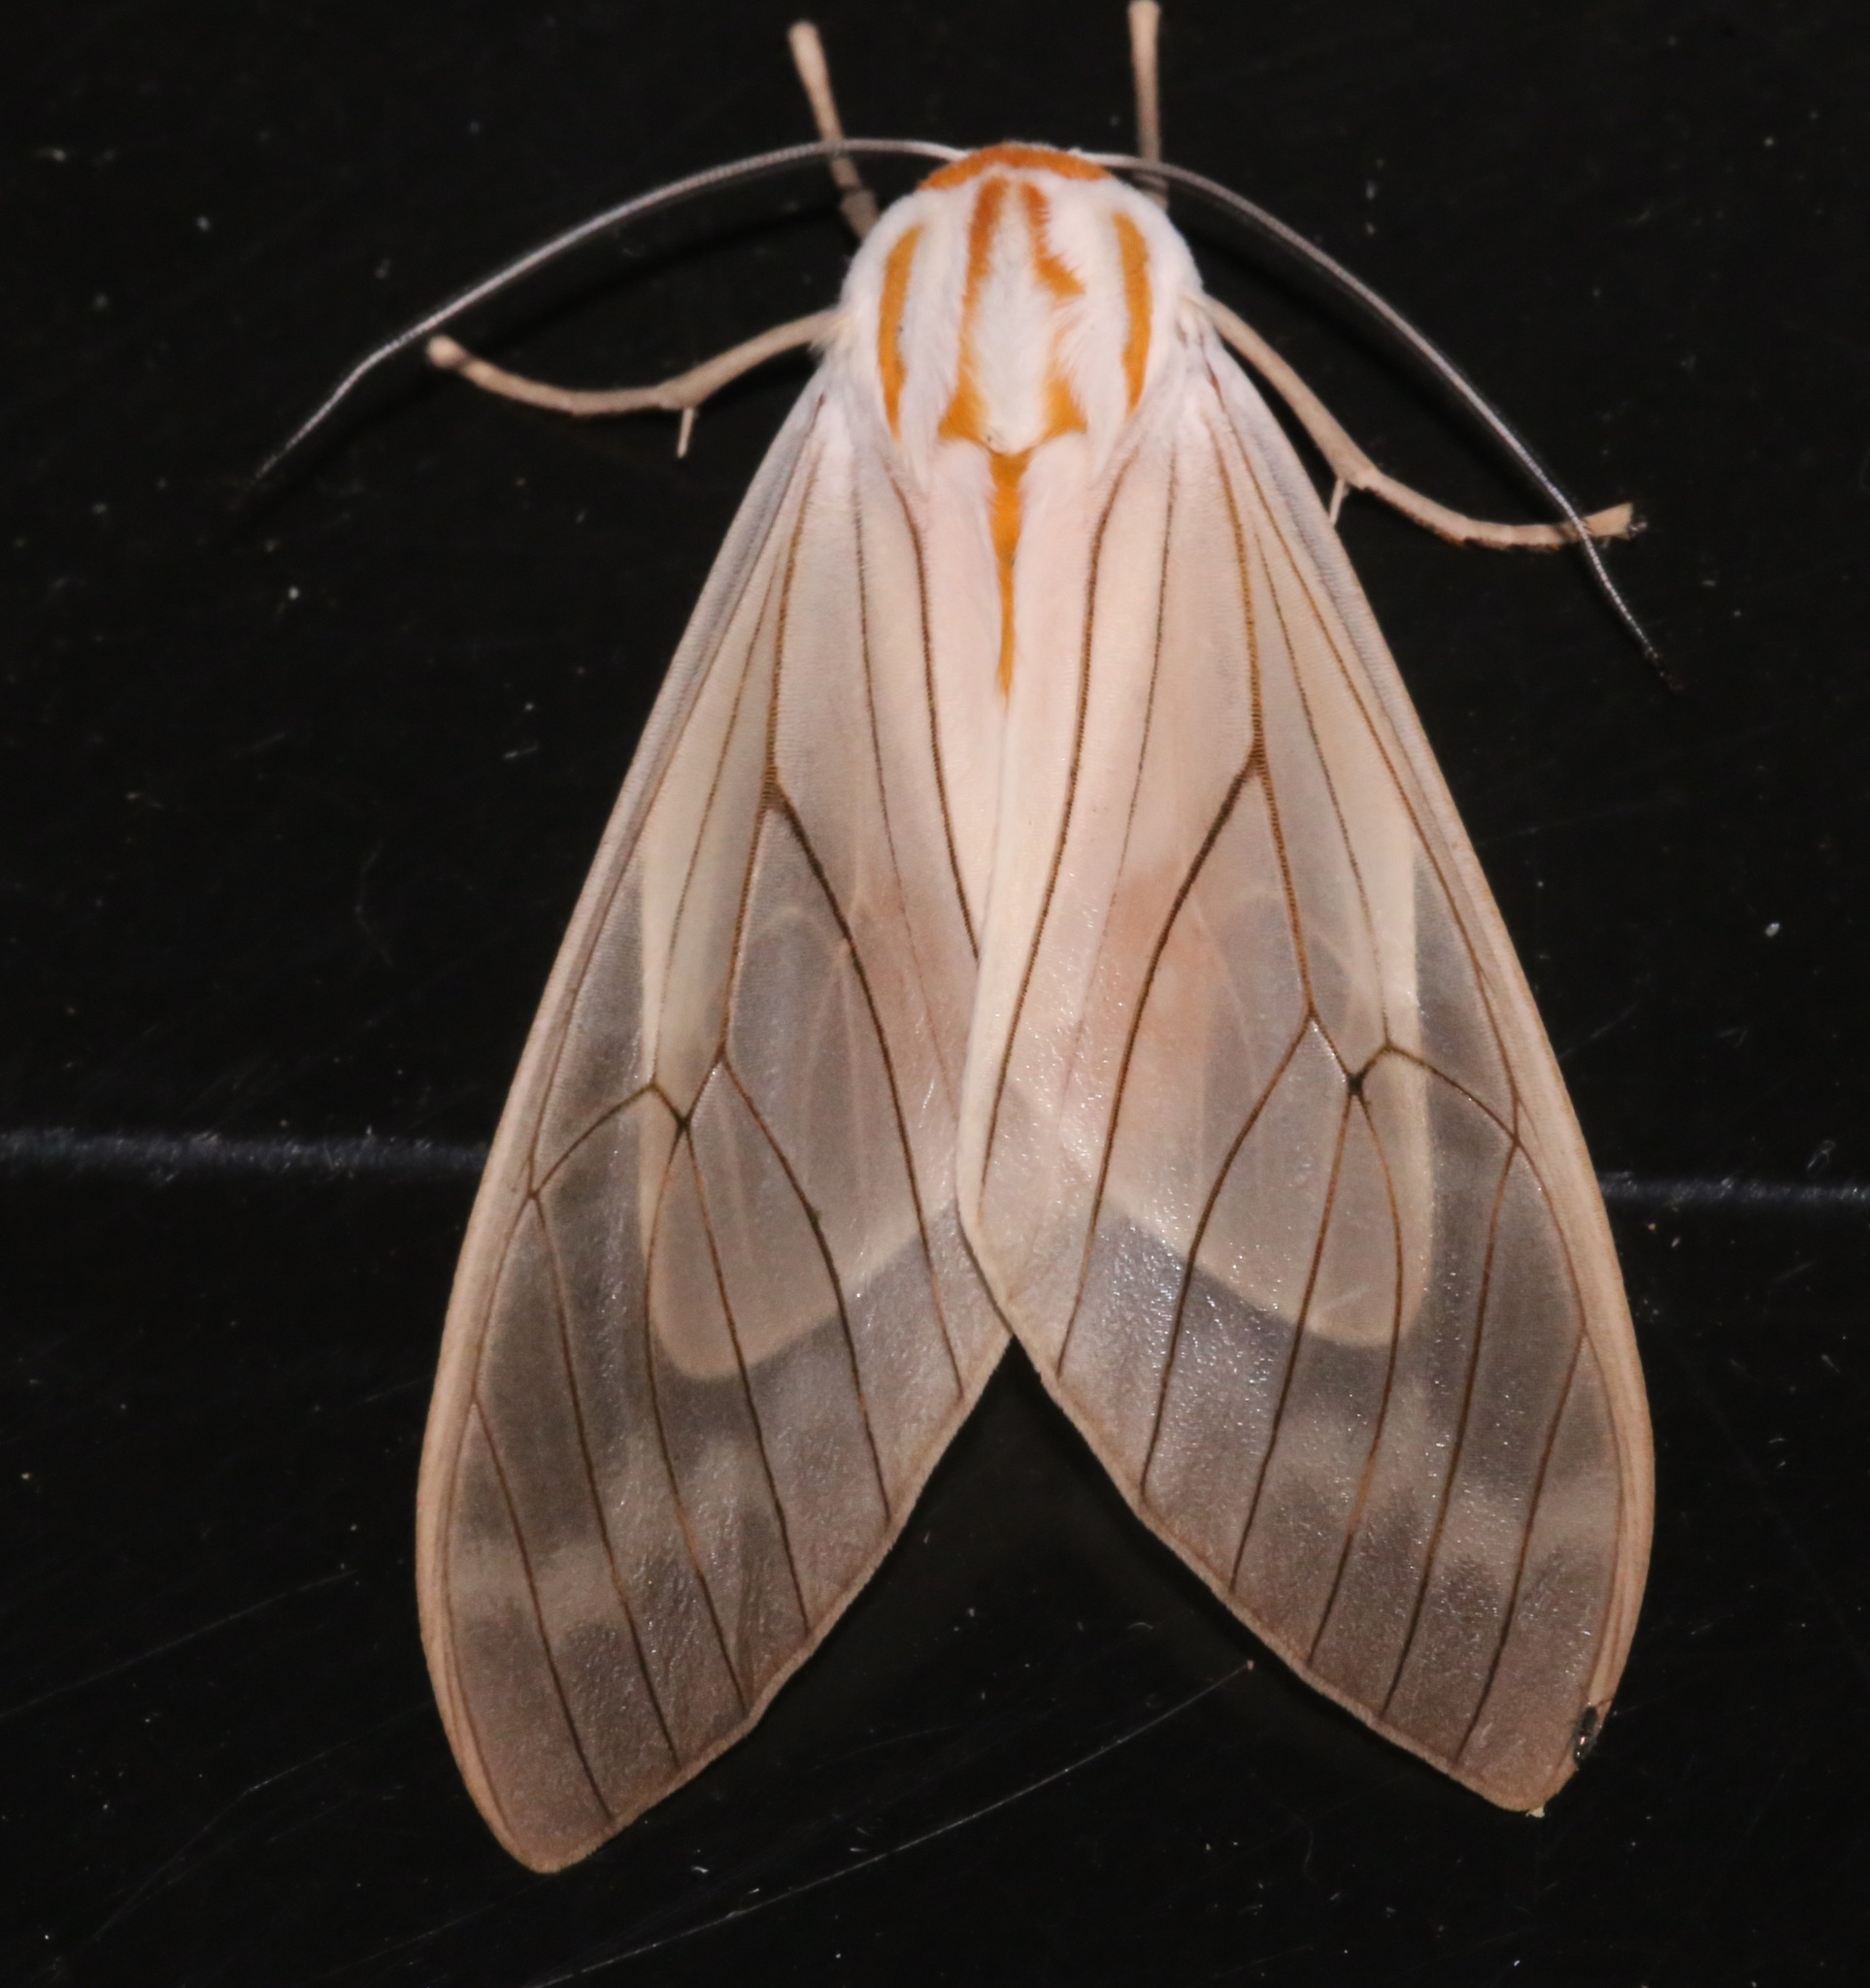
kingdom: Animalia
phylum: Arthropoda
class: Insecta
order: Lepidoptera
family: Erebidae
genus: Amastus
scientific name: Amastus aconia
